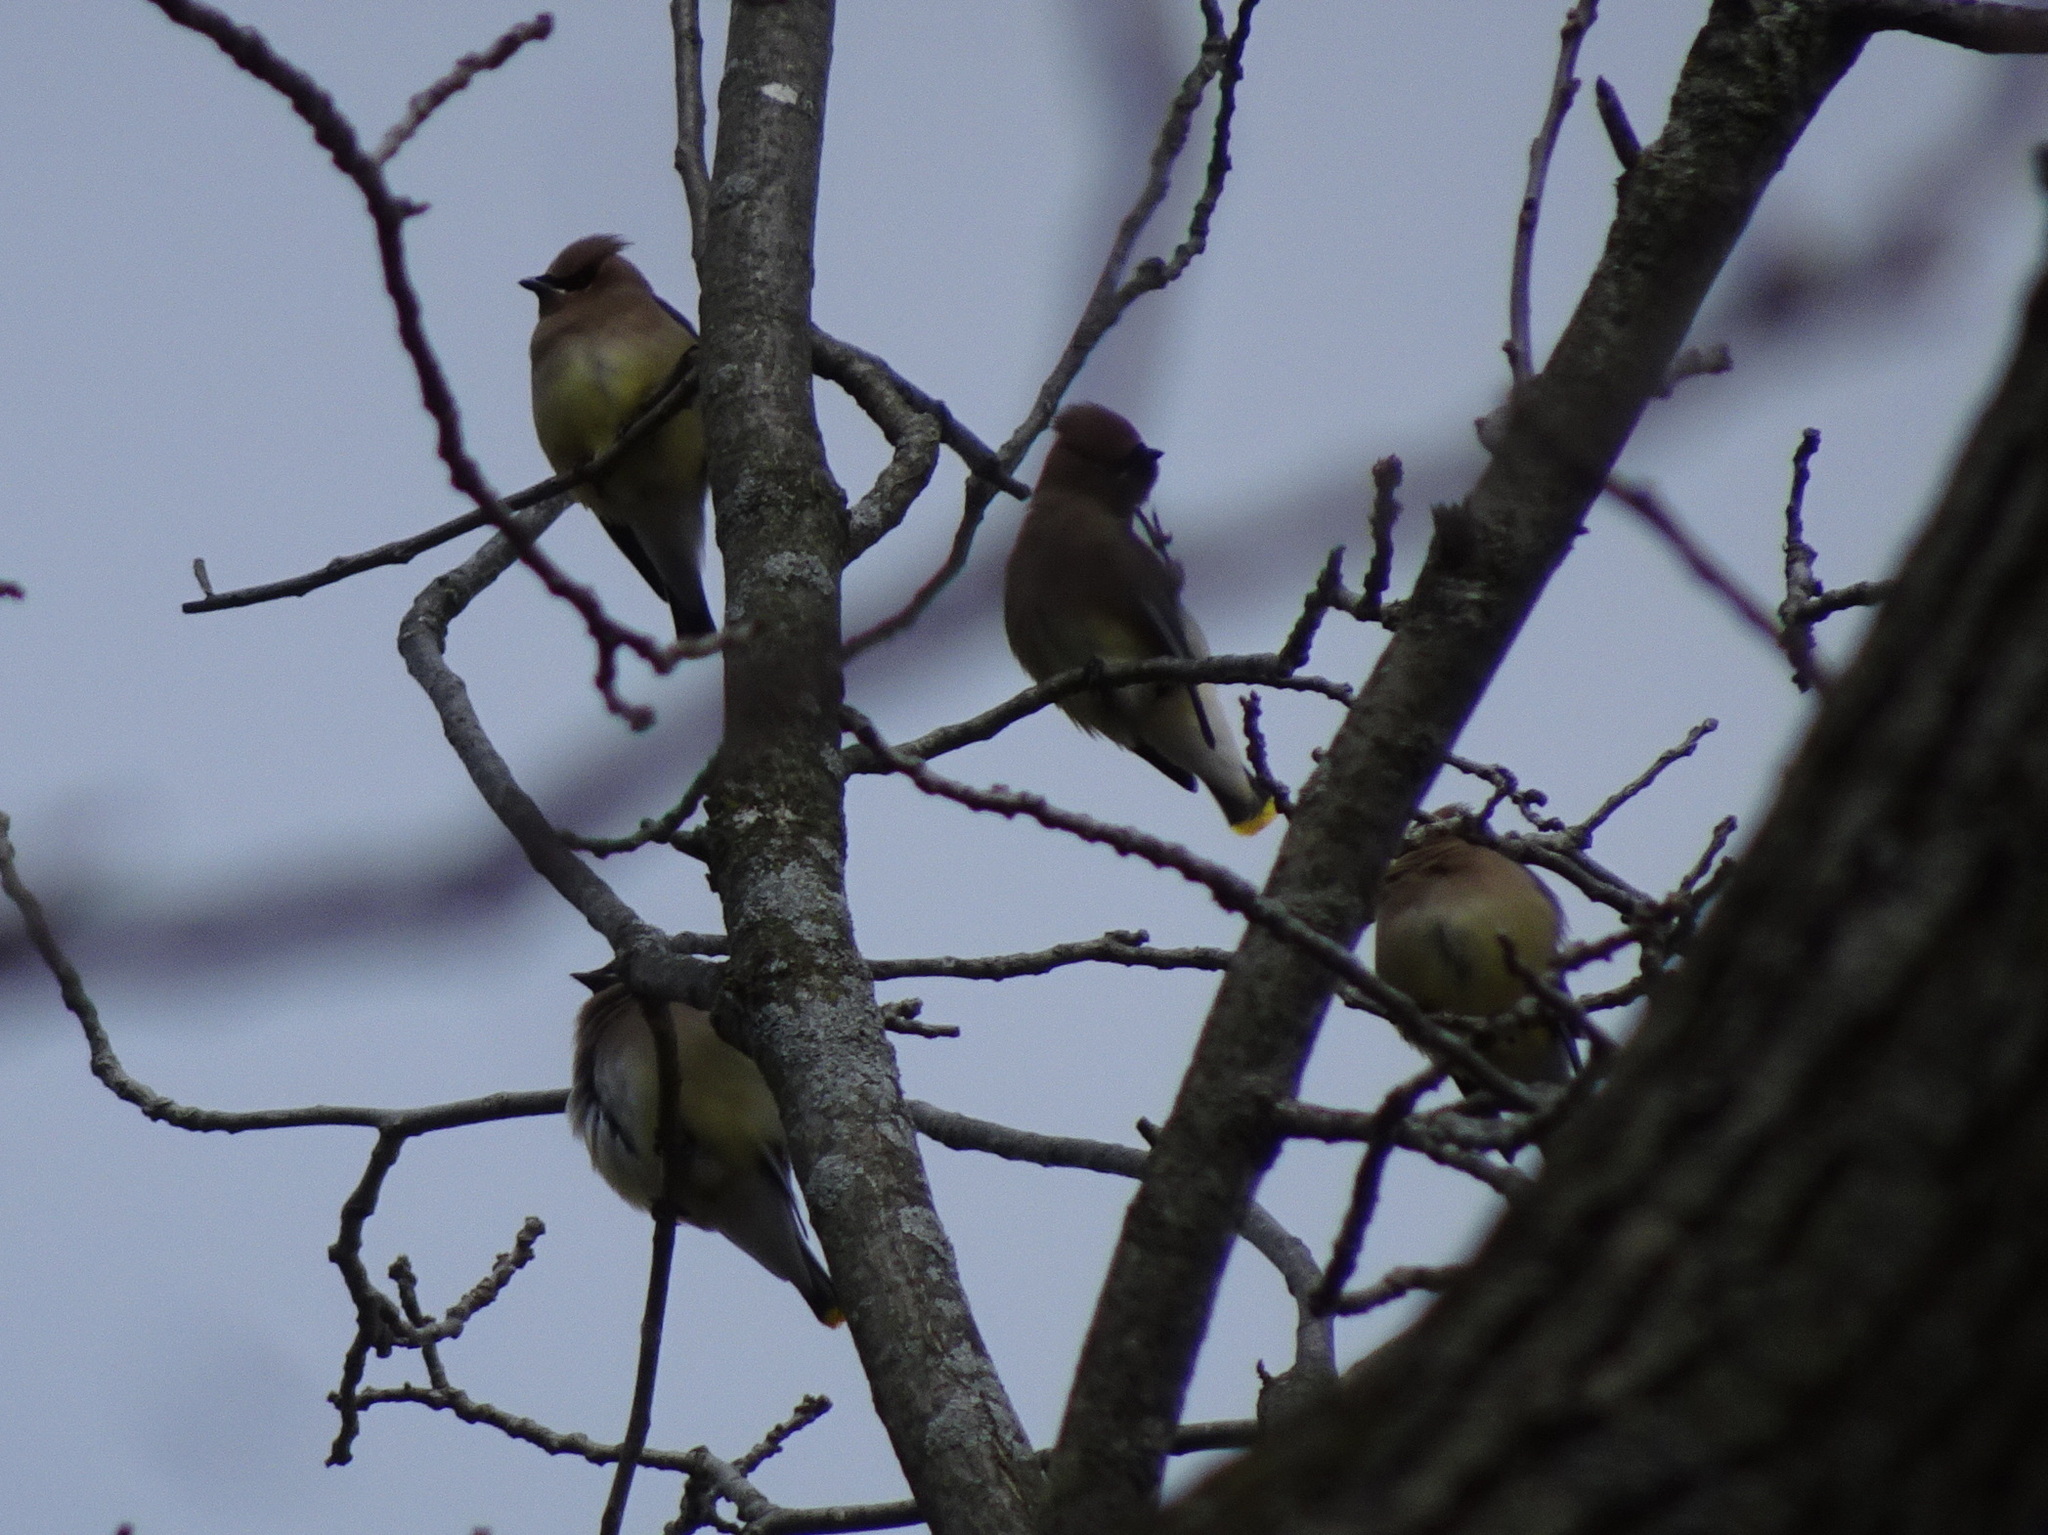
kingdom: Animalia
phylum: Chordata
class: Aves
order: Passeriformes
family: Bombycillidae
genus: Bombycilla
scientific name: Bombycilla cedrorum
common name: Cedar waxwing
